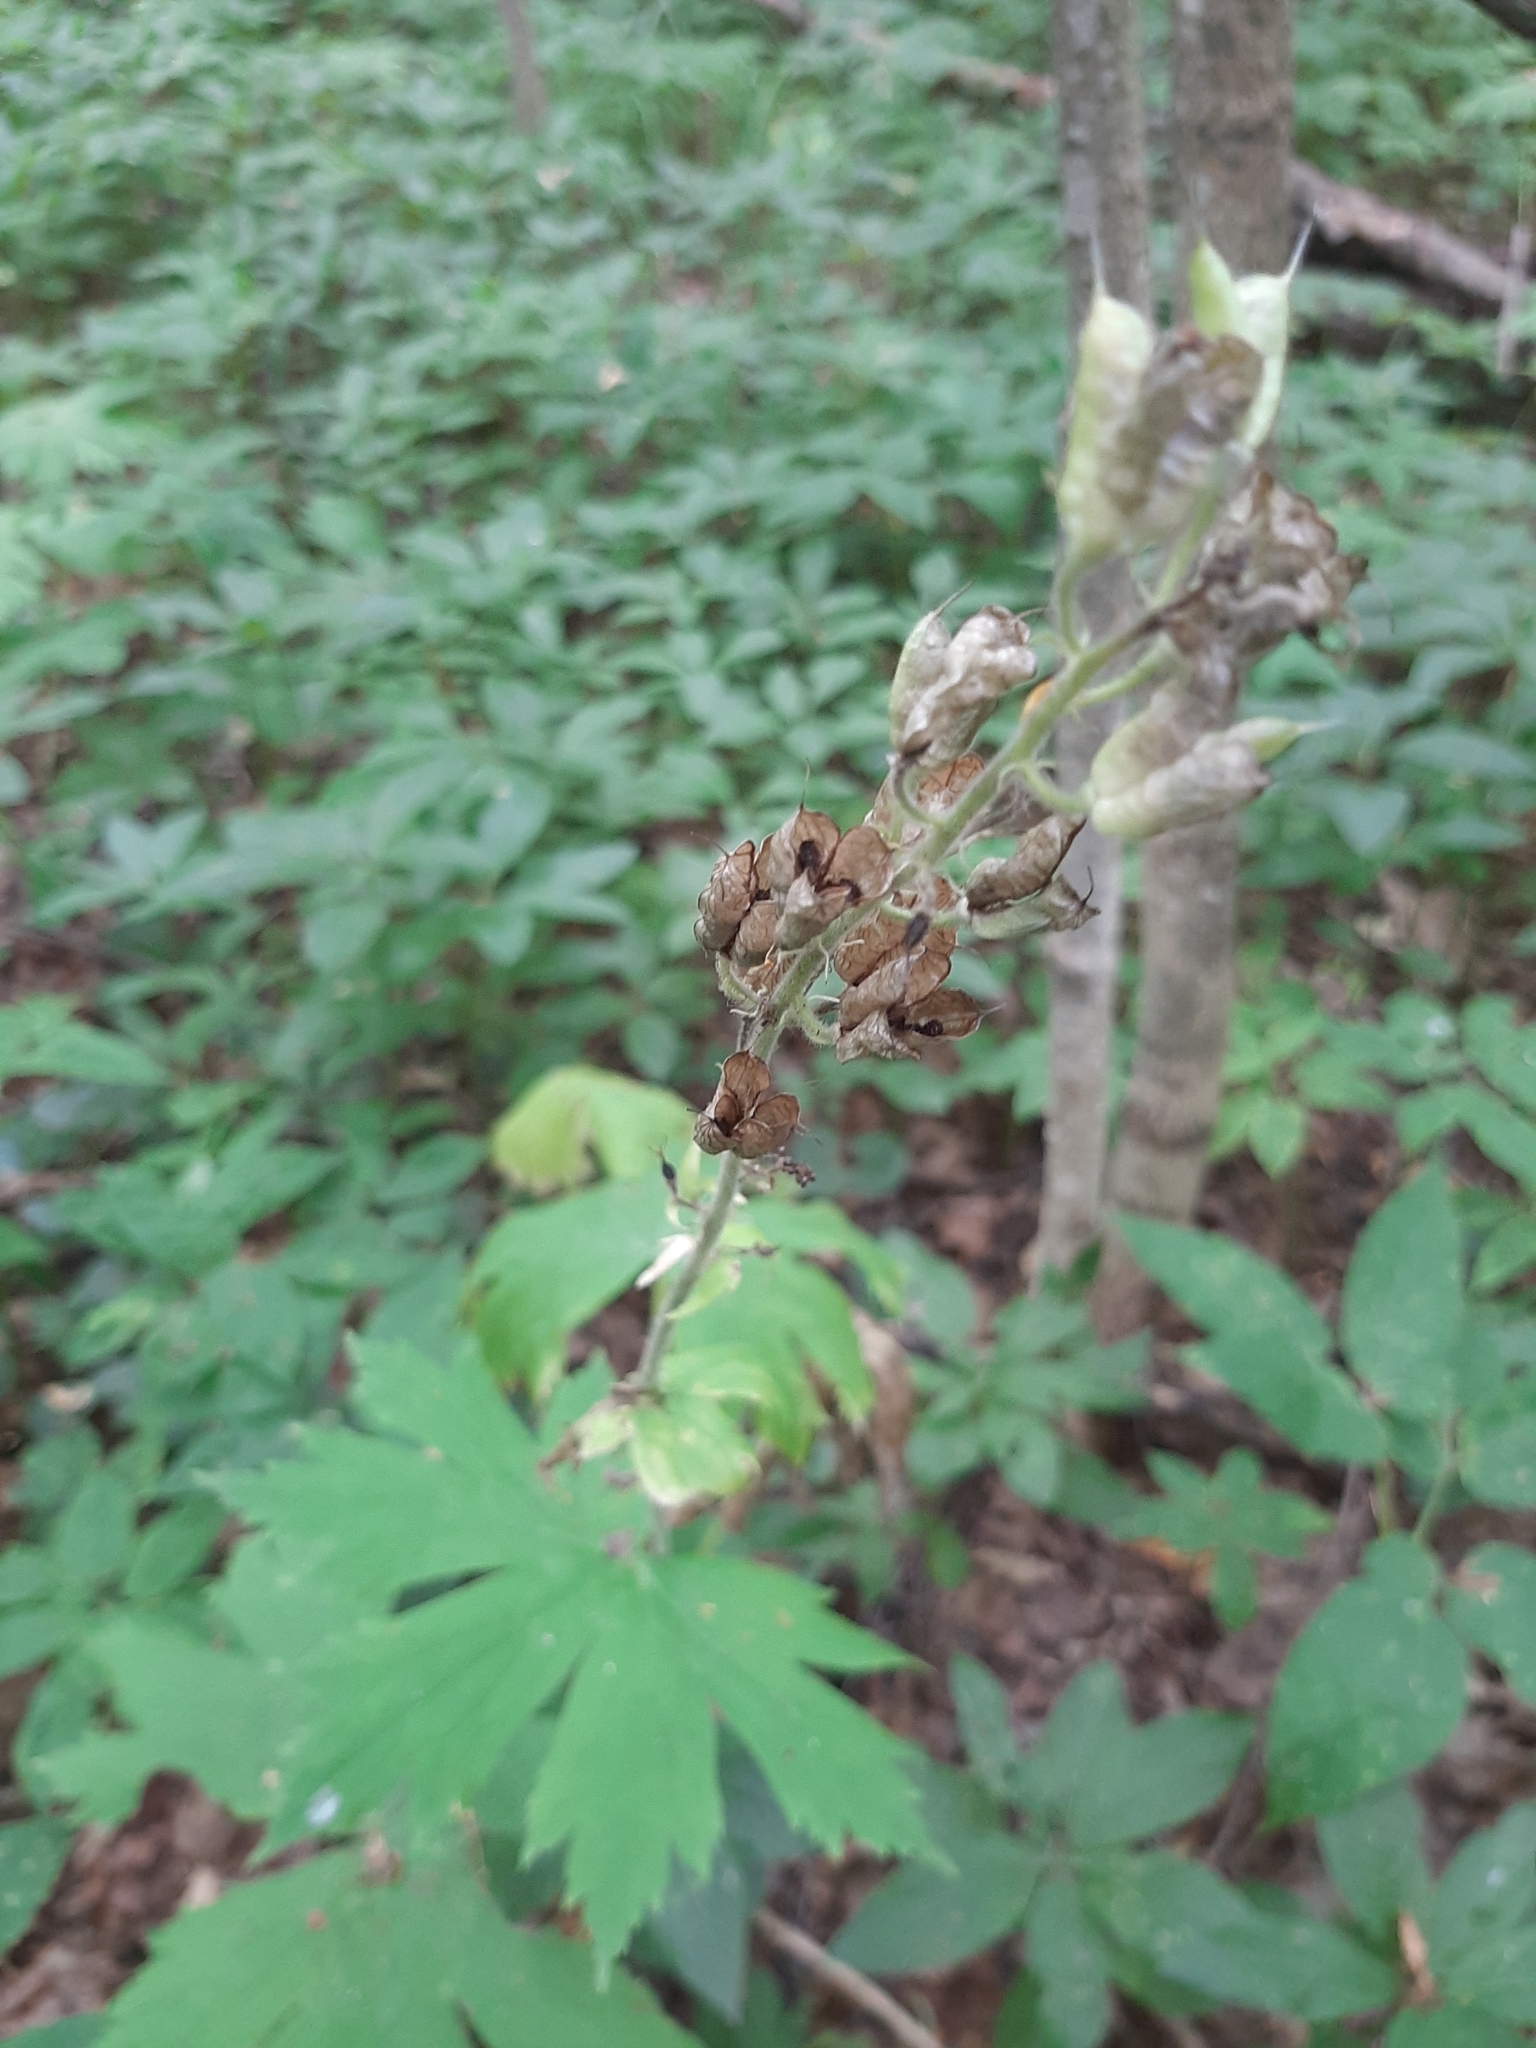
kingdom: Plantae
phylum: Tracheophyta
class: Magnoliopsida
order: Ranunculales
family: Ranunculaceae
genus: Aconitum
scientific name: Aconitum septentrionale
